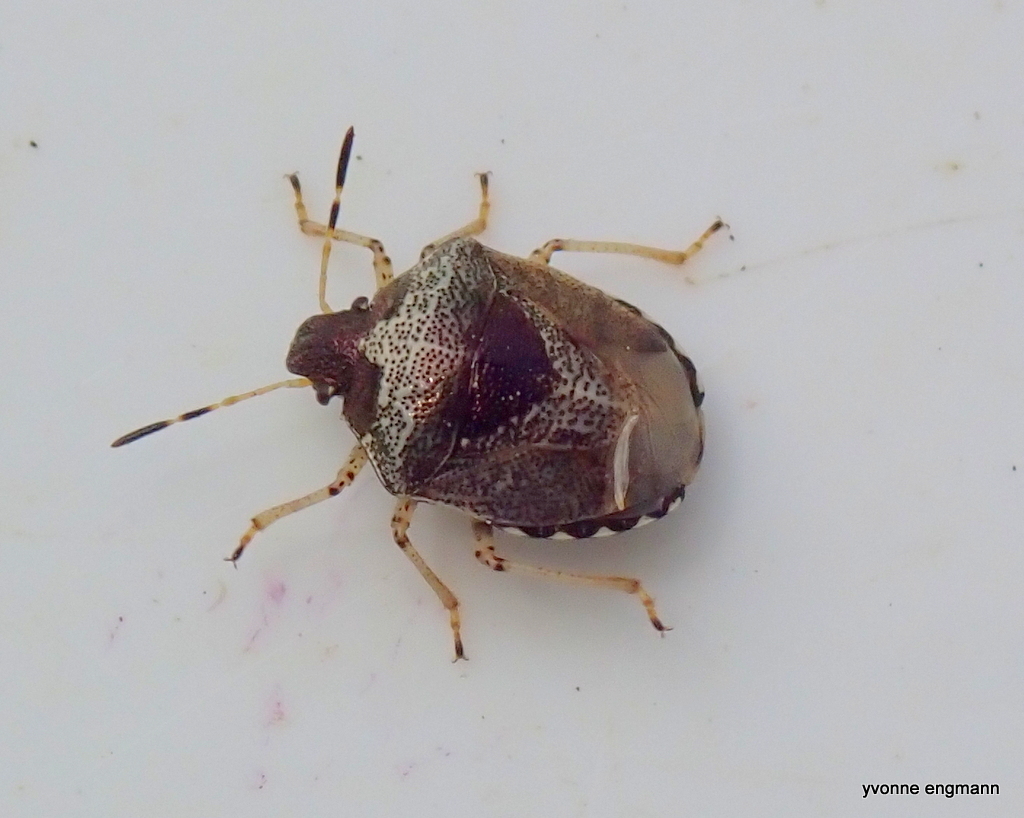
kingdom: Animalia
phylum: Arthropoda
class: Insecta
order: Hemiptera
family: Pentatomidae
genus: Eysarcoris
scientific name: Eysarcoris venustissimus
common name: Woundwort shieldbug
